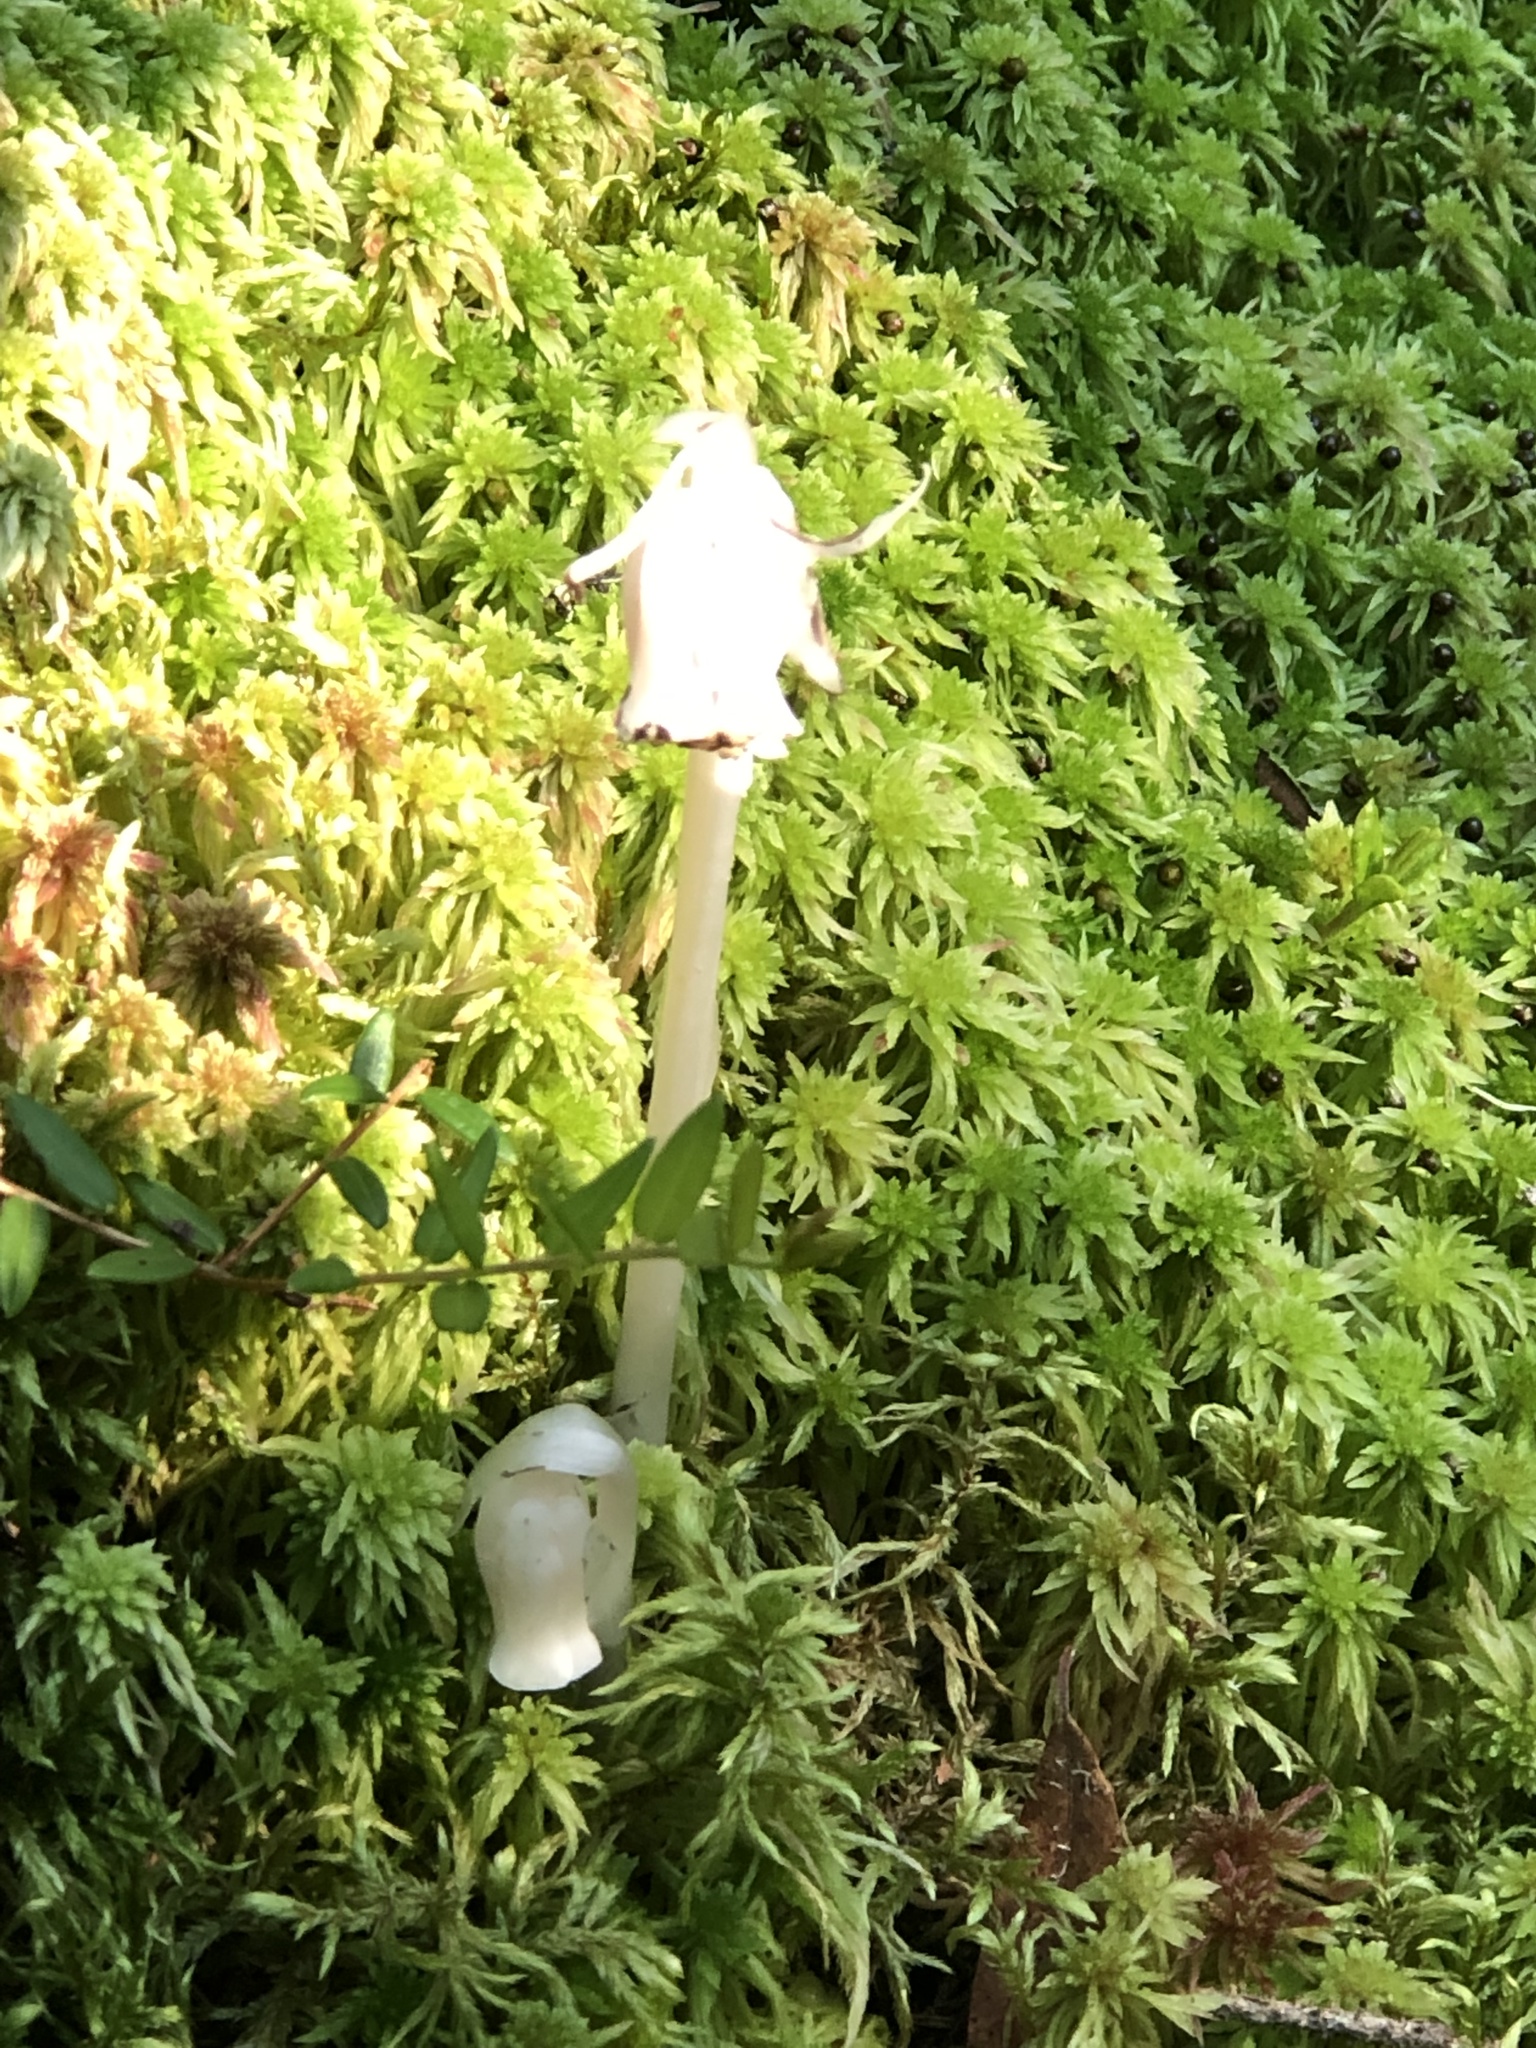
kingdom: Plantae
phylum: Tracheophyta
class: Magnoliopsida
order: Ericales
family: Ericaceae
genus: Monotropa
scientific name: Monotropa uniflora
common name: Convulsion root
